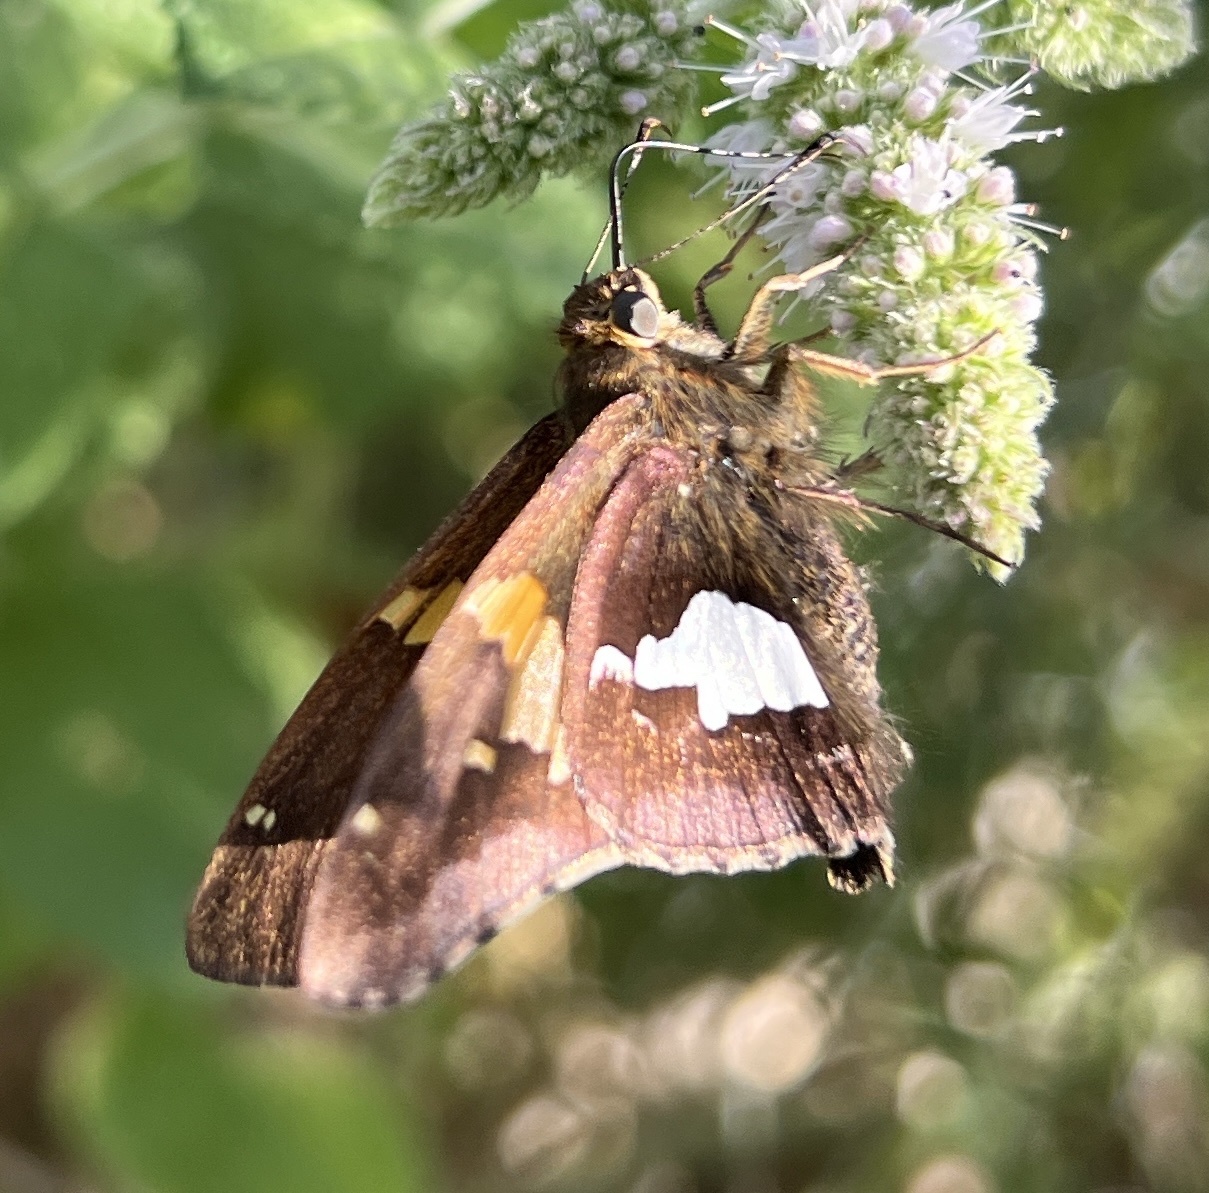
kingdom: Animalia
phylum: Arthropoda
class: Insecta
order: Lepidoptera
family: Hesperiidae
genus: Epargyreus
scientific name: Epargyreus clarus
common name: Silver-spotted skipper
